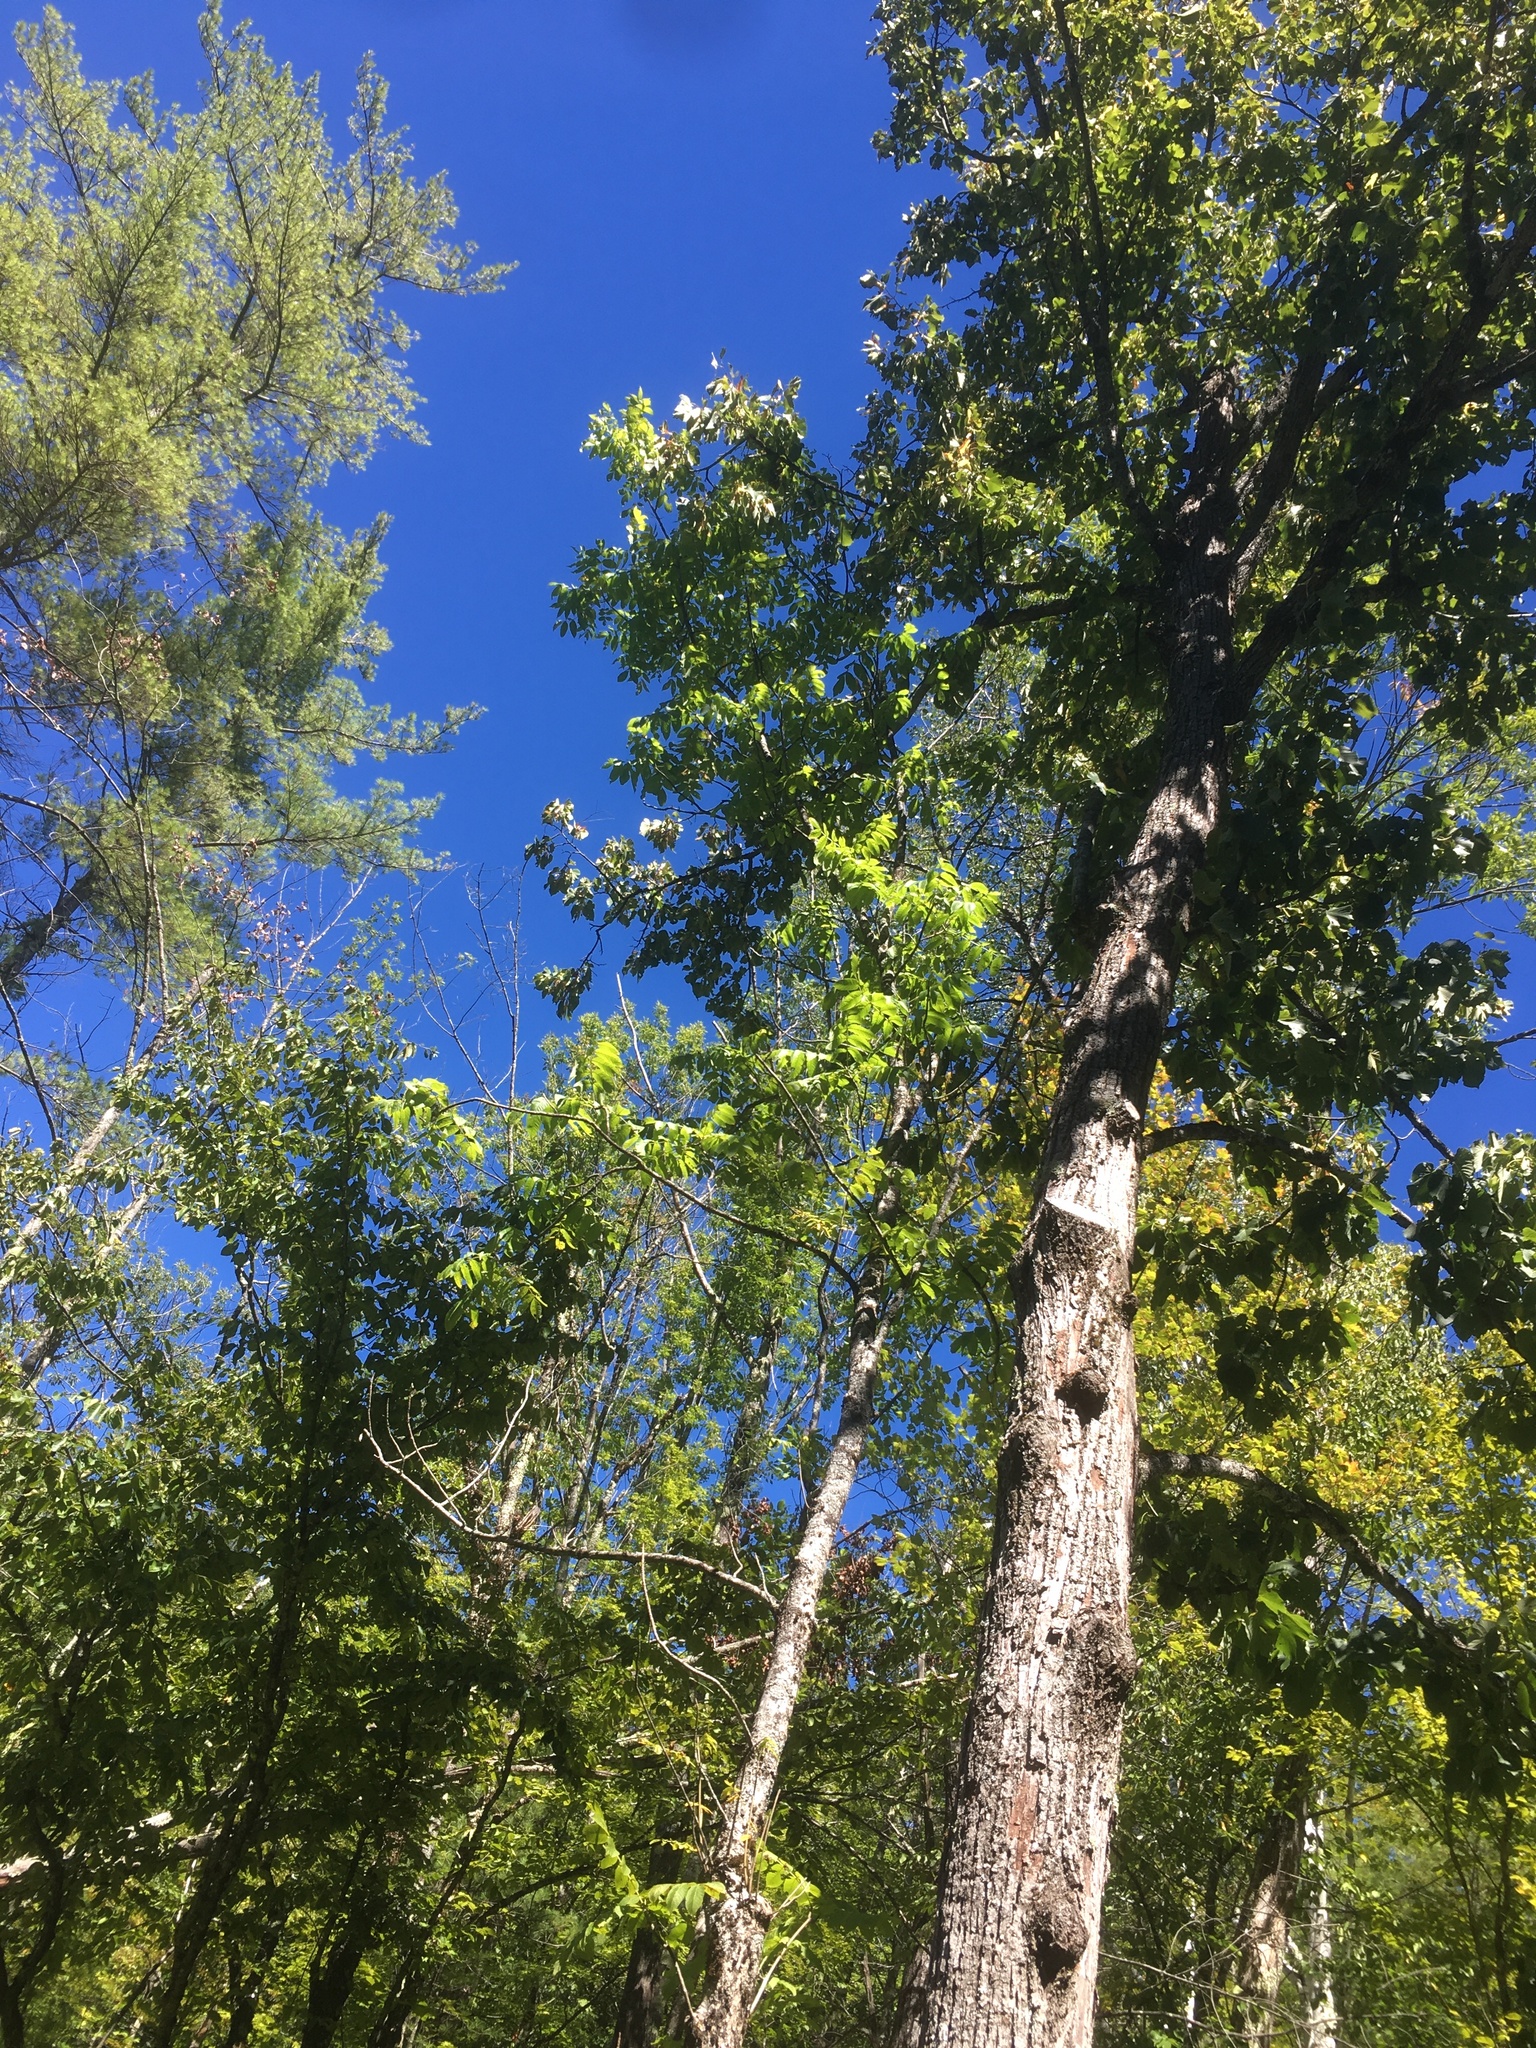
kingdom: Plantae
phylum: Tracheophyta
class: Magnoliopsida
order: Lamiales
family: Oleaceae
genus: Fraxinus
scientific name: Fraxinus nigra
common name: Black ash
